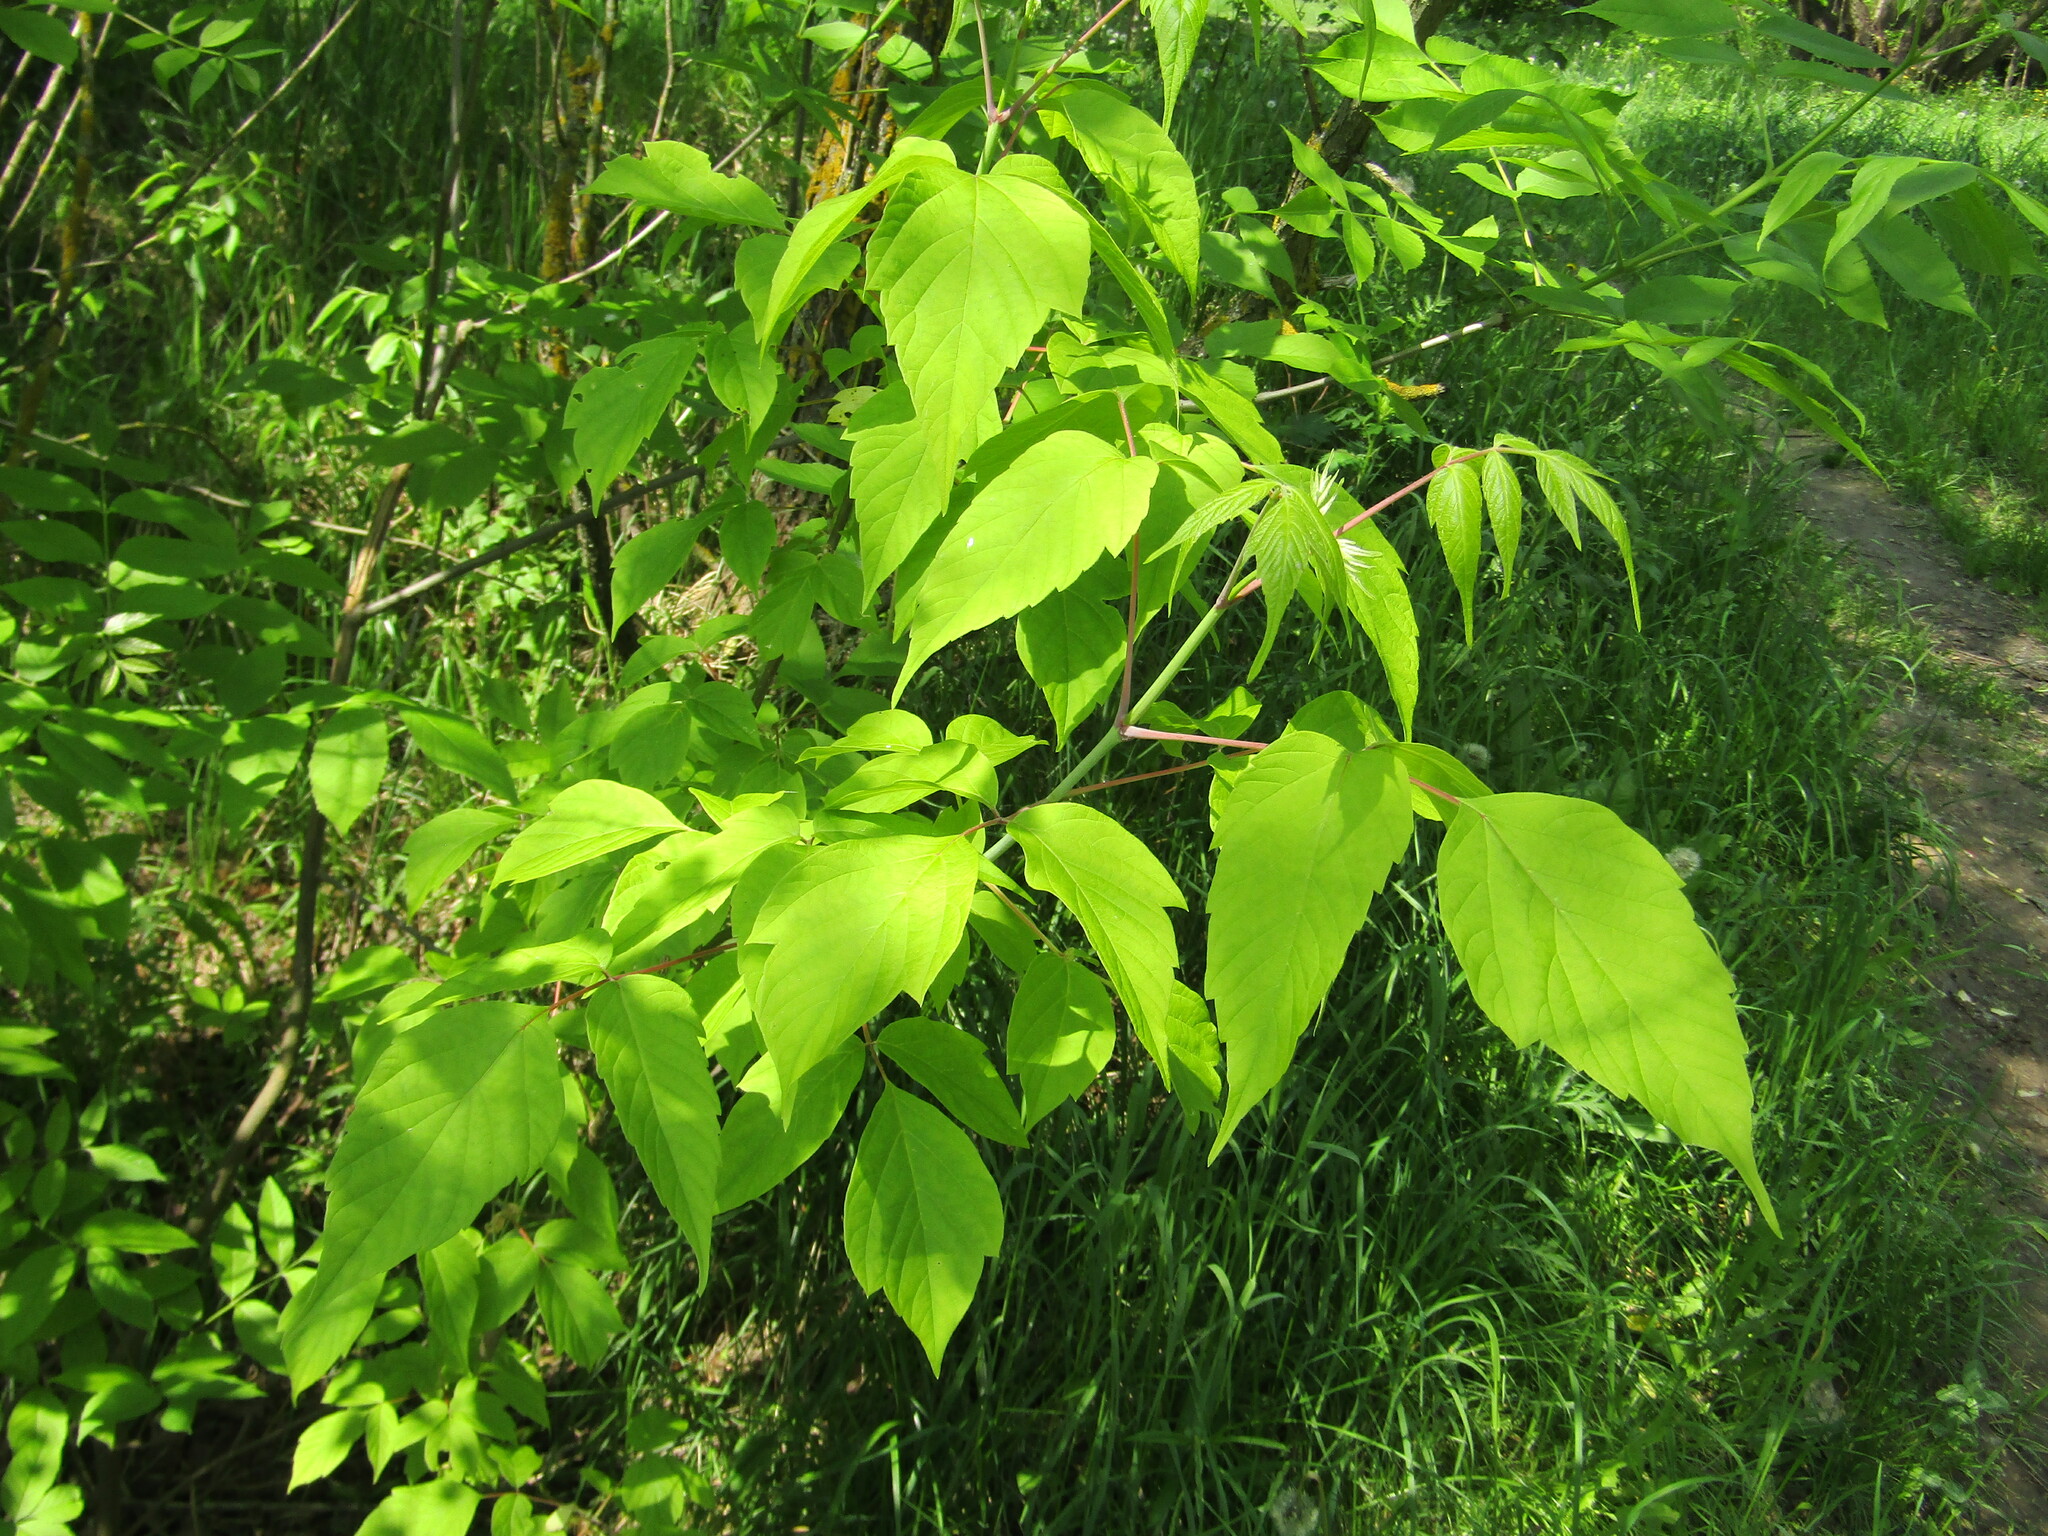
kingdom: Plantae
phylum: Tracheophyta
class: Magnoliopsida
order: Sapindales
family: Sapindaceae
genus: Acer
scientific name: Acer negundo
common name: Ashleaf maple
